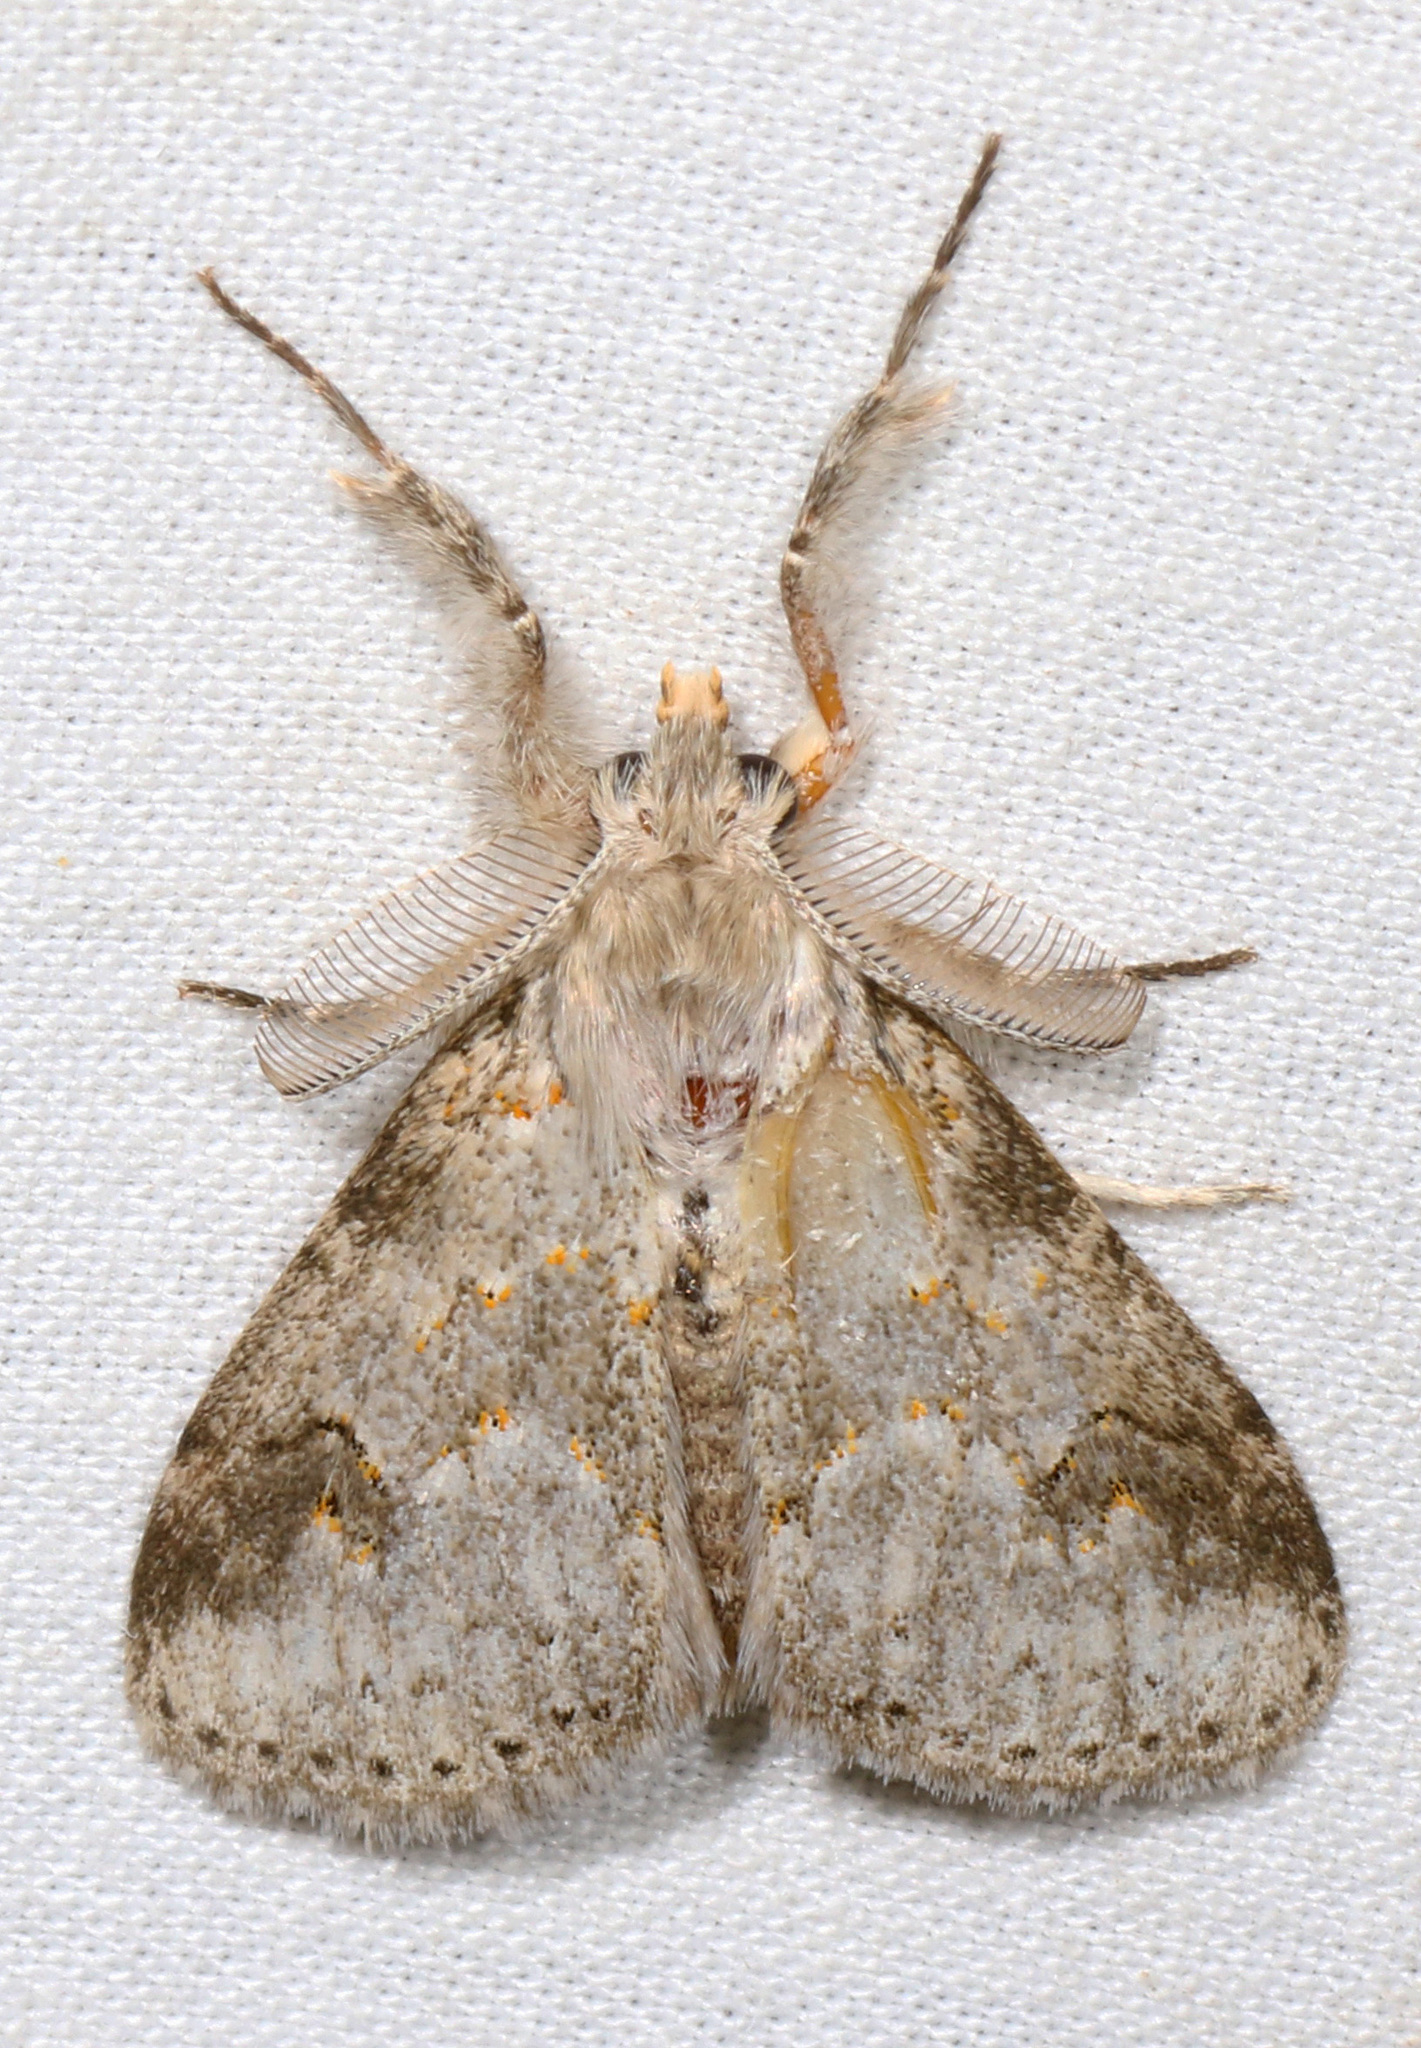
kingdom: Animalia
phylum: Arthropoda
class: Insecta
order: Lepidoptera
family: Erebidae
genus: Laelia
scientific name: Laelia clarki
